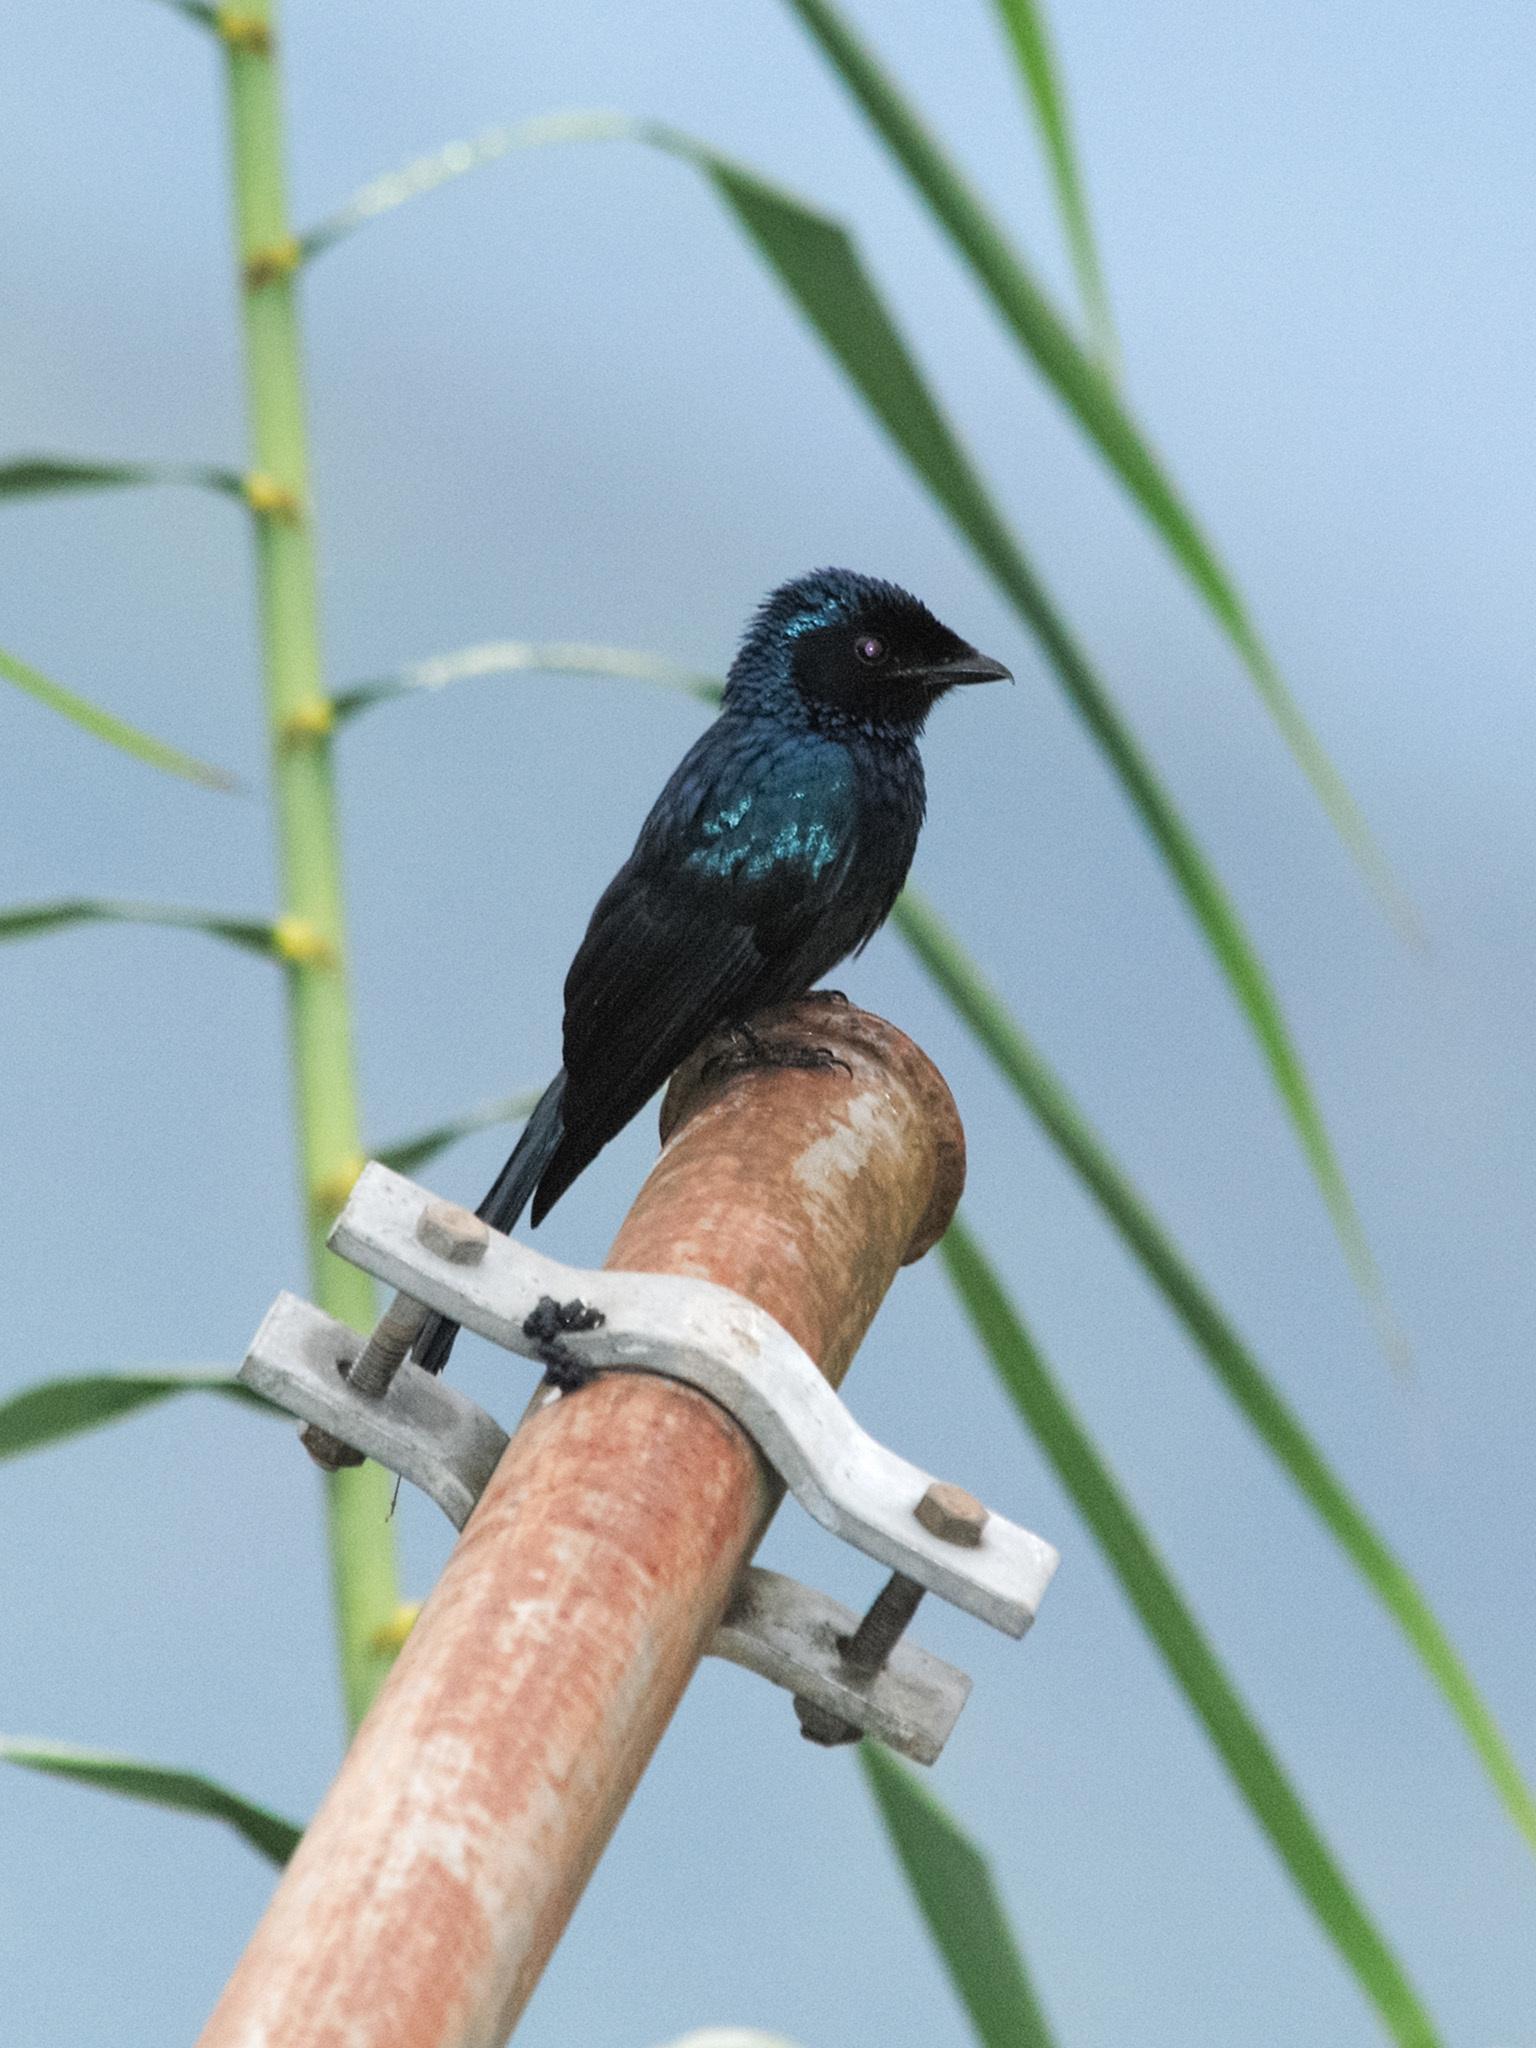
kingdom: Animalia
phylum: Chordata
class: Aves
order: Passeriformes
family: Dicruridae
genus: Dicrurus
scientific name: Dicrurus remifer
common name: Lesser racket-tailed drongo
